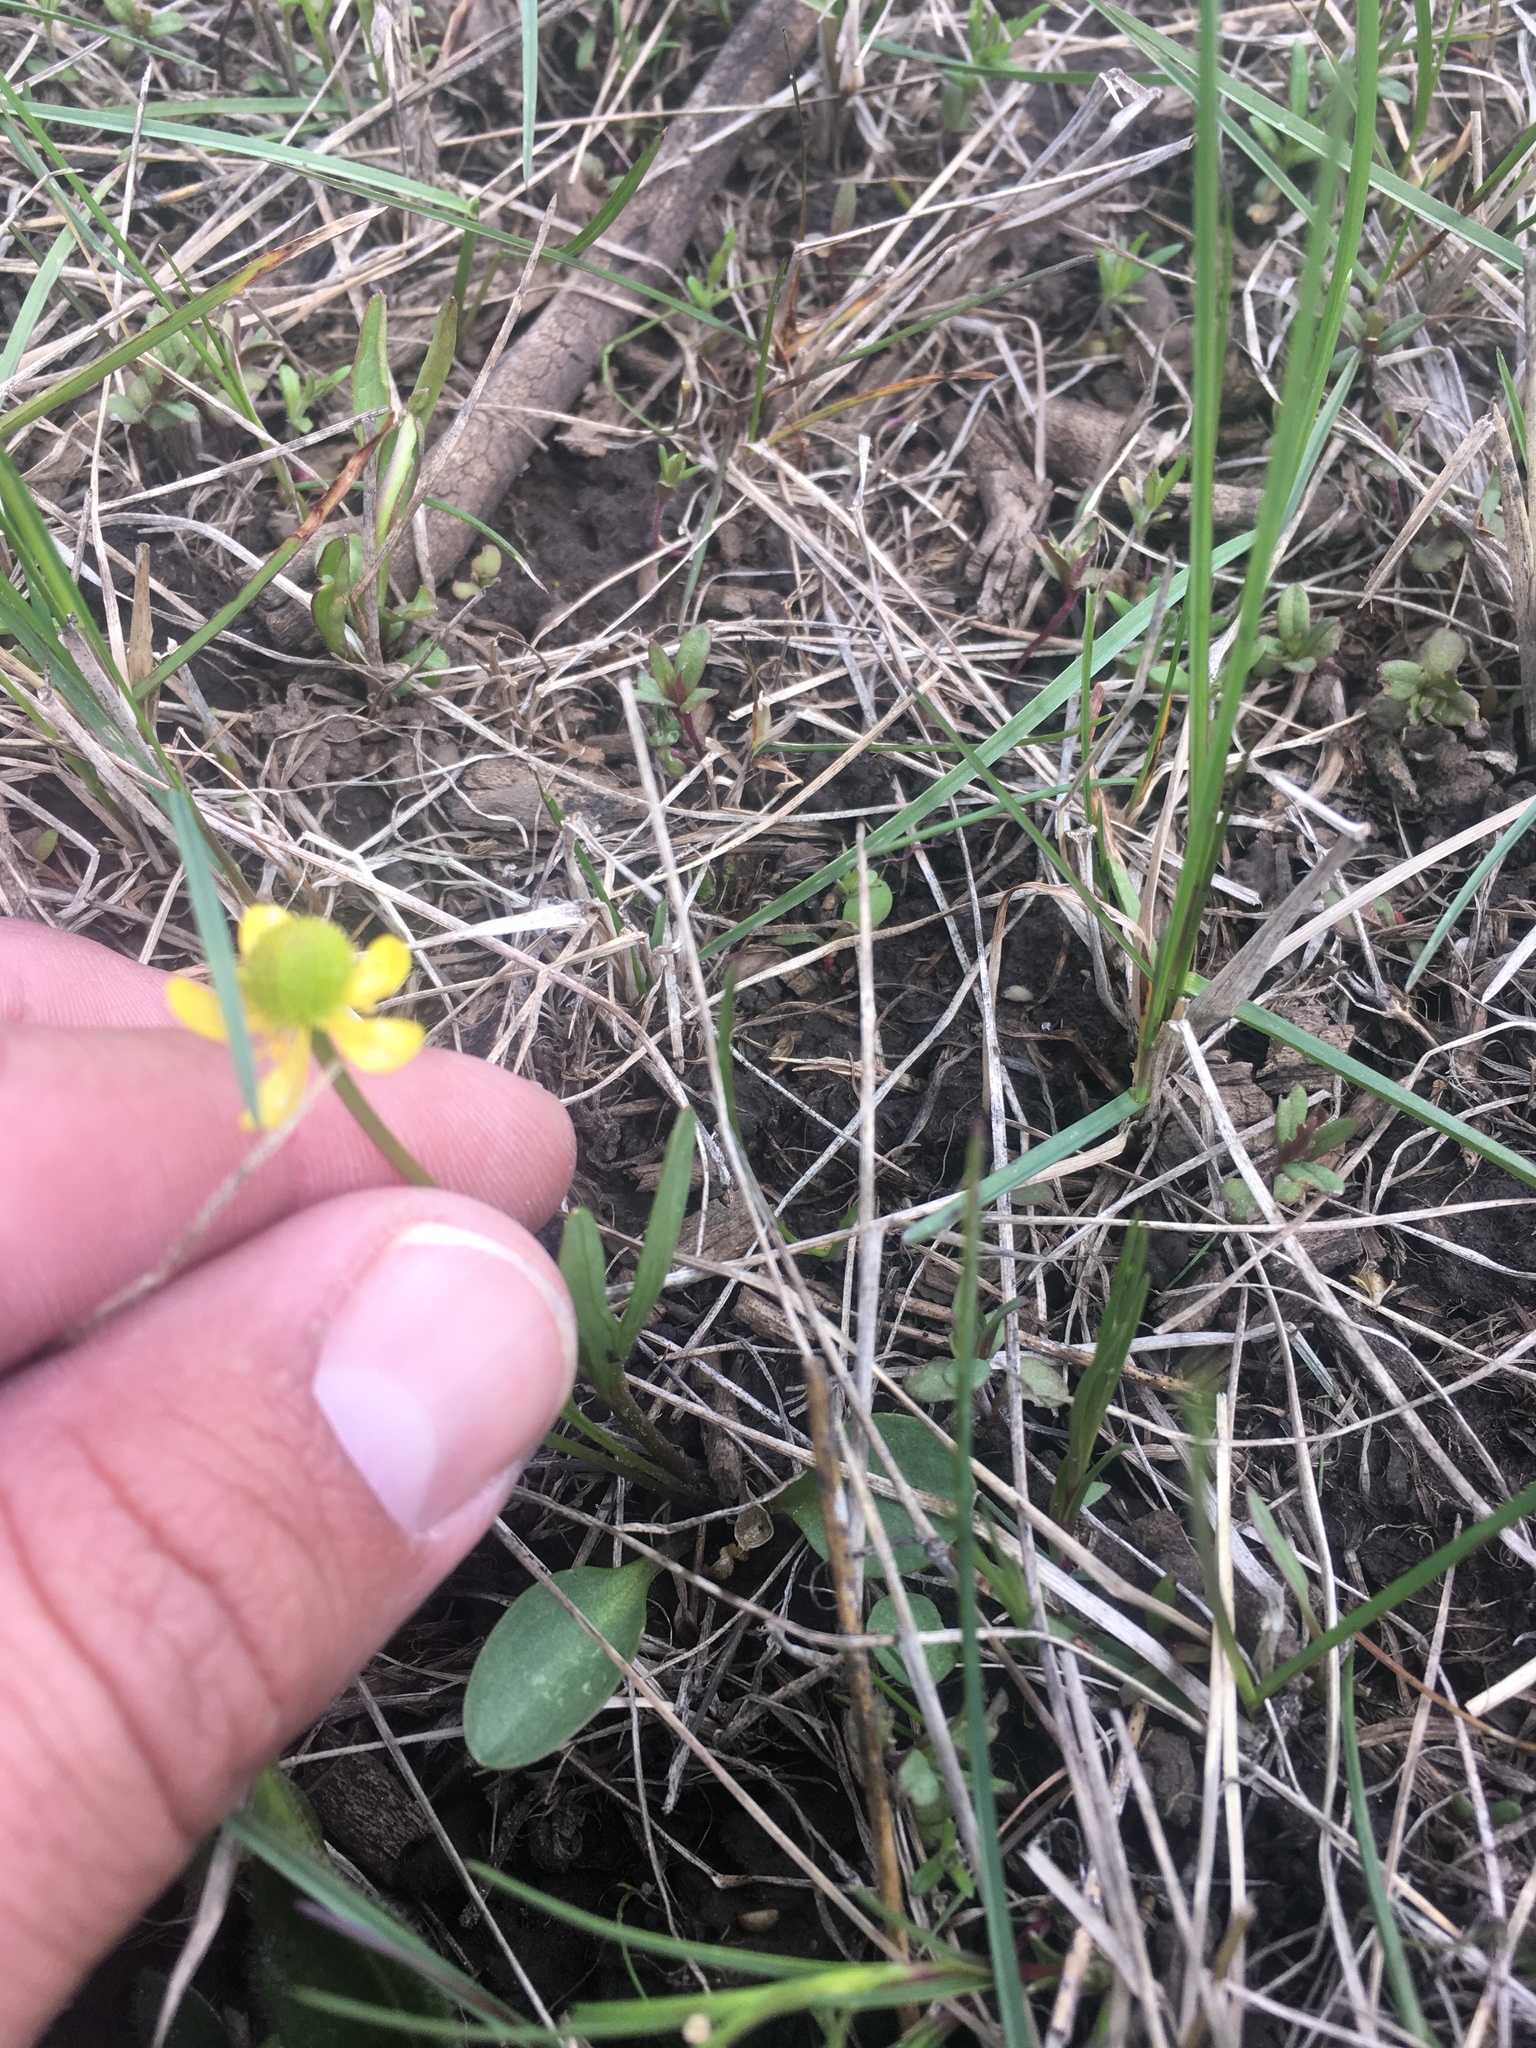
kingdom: Plantae
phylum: Tracheophyta
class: Magnoliopsida
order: Ranunculales
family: Ranunculaceae
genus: Ranunculus
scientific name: Ranunculus digitatus
